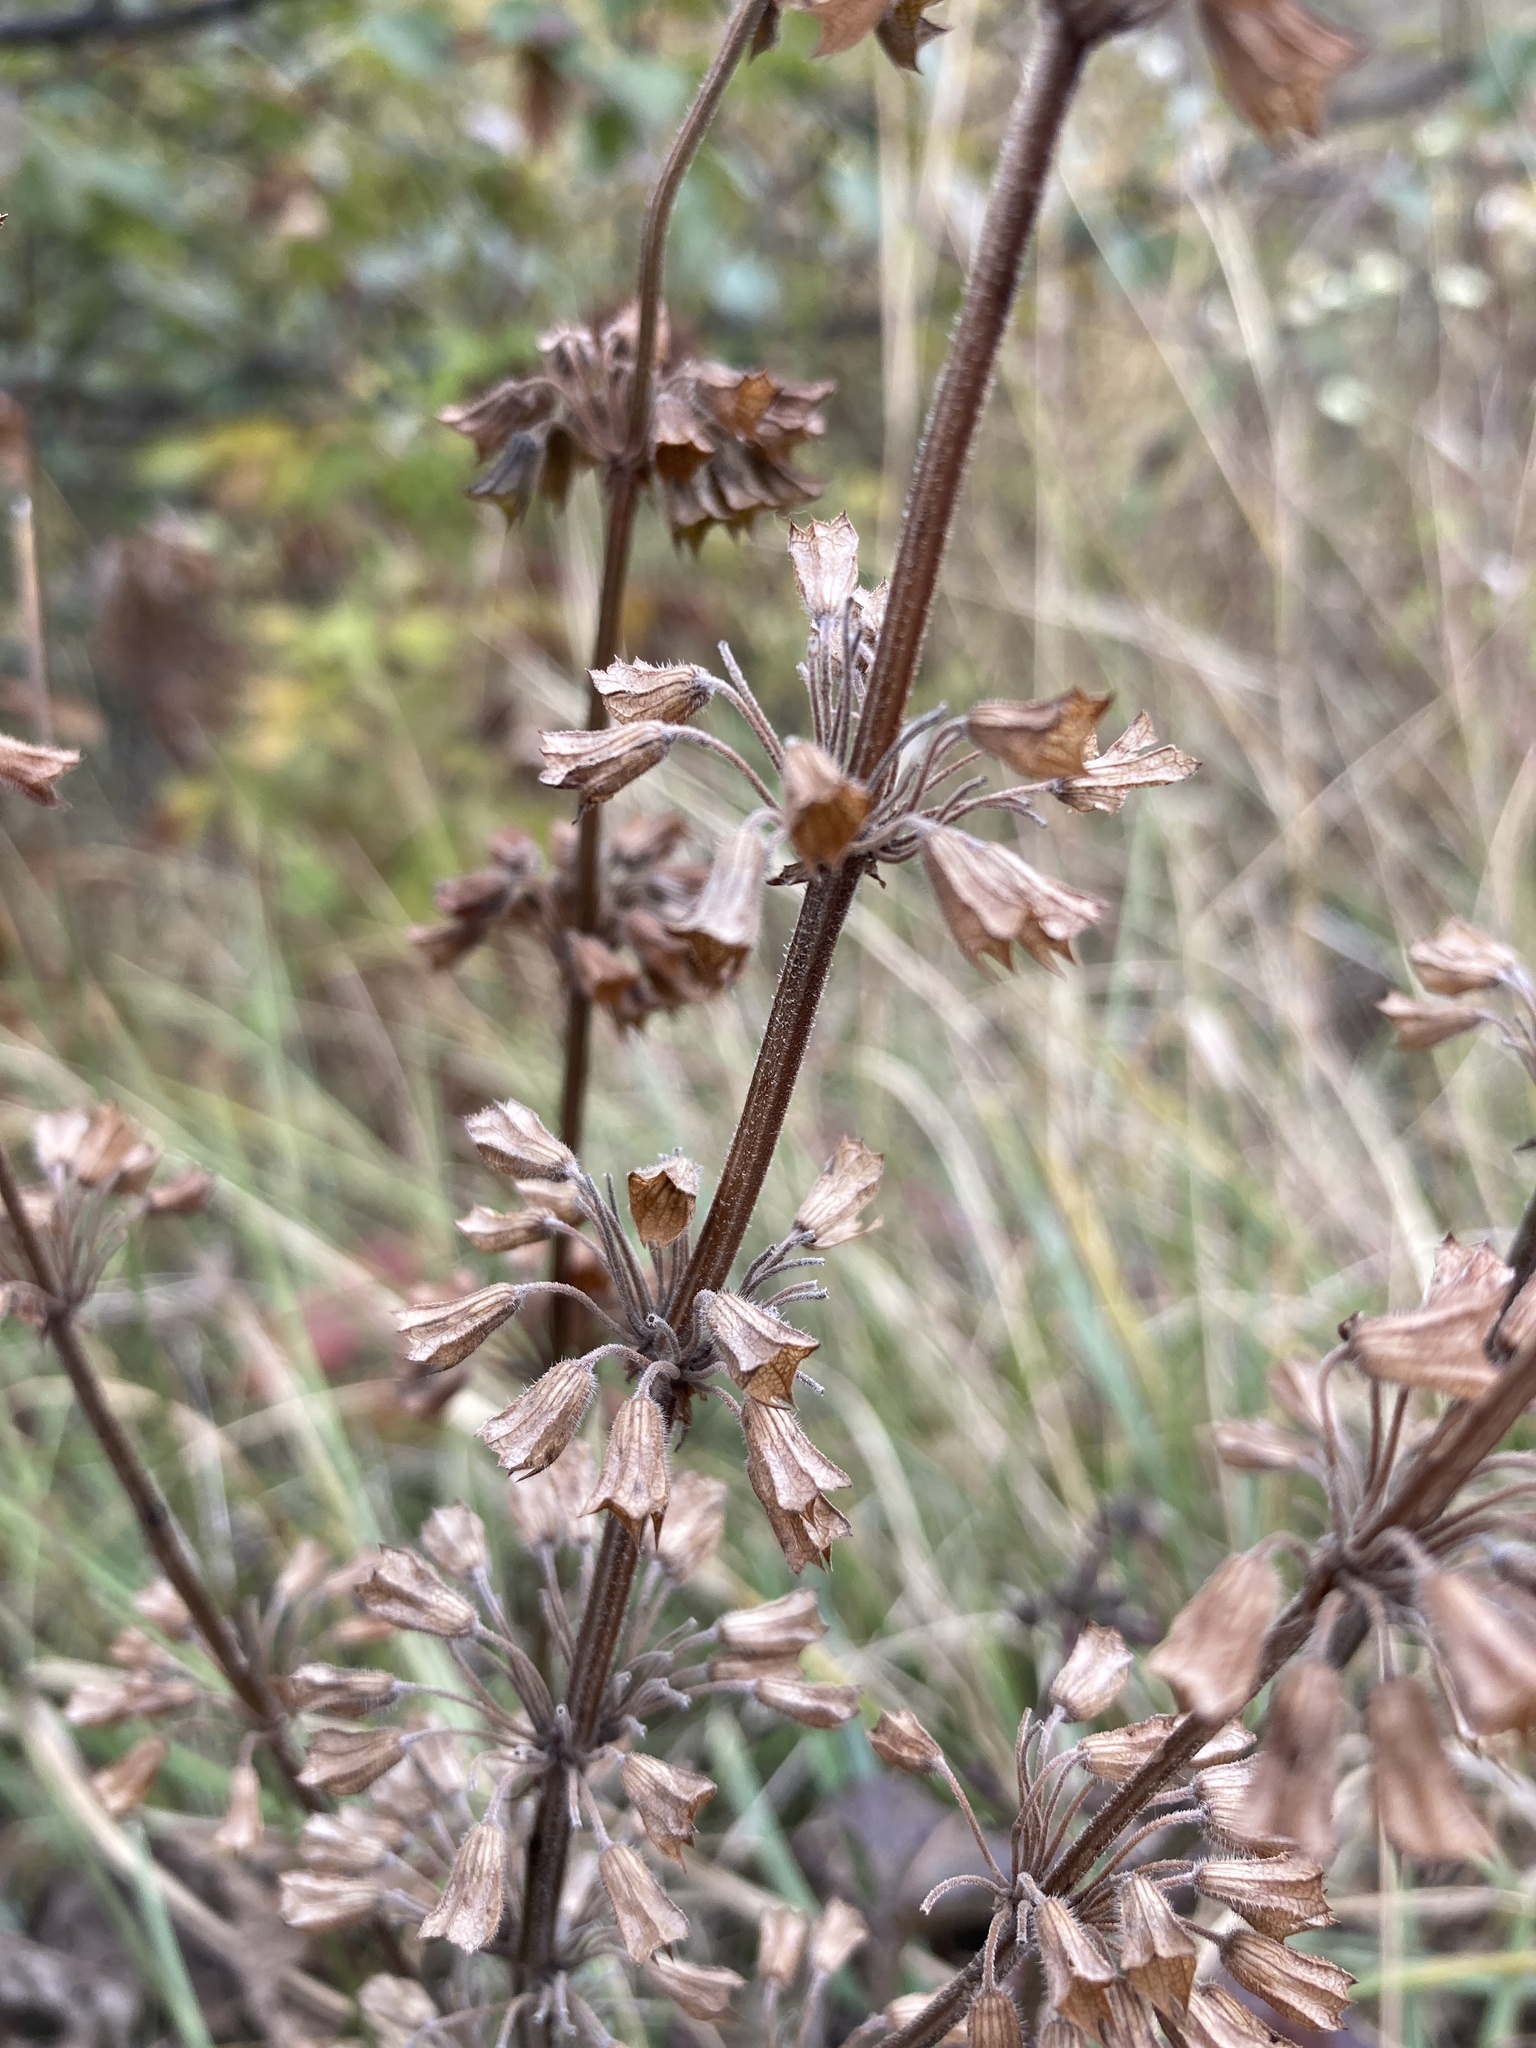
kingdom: Plantae
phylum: Tracheophyta
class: Magnoliopsida
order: Lamiales
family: Lamiaceae
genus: Salvia
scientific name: Salvia verticillata
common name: Whorled clary
